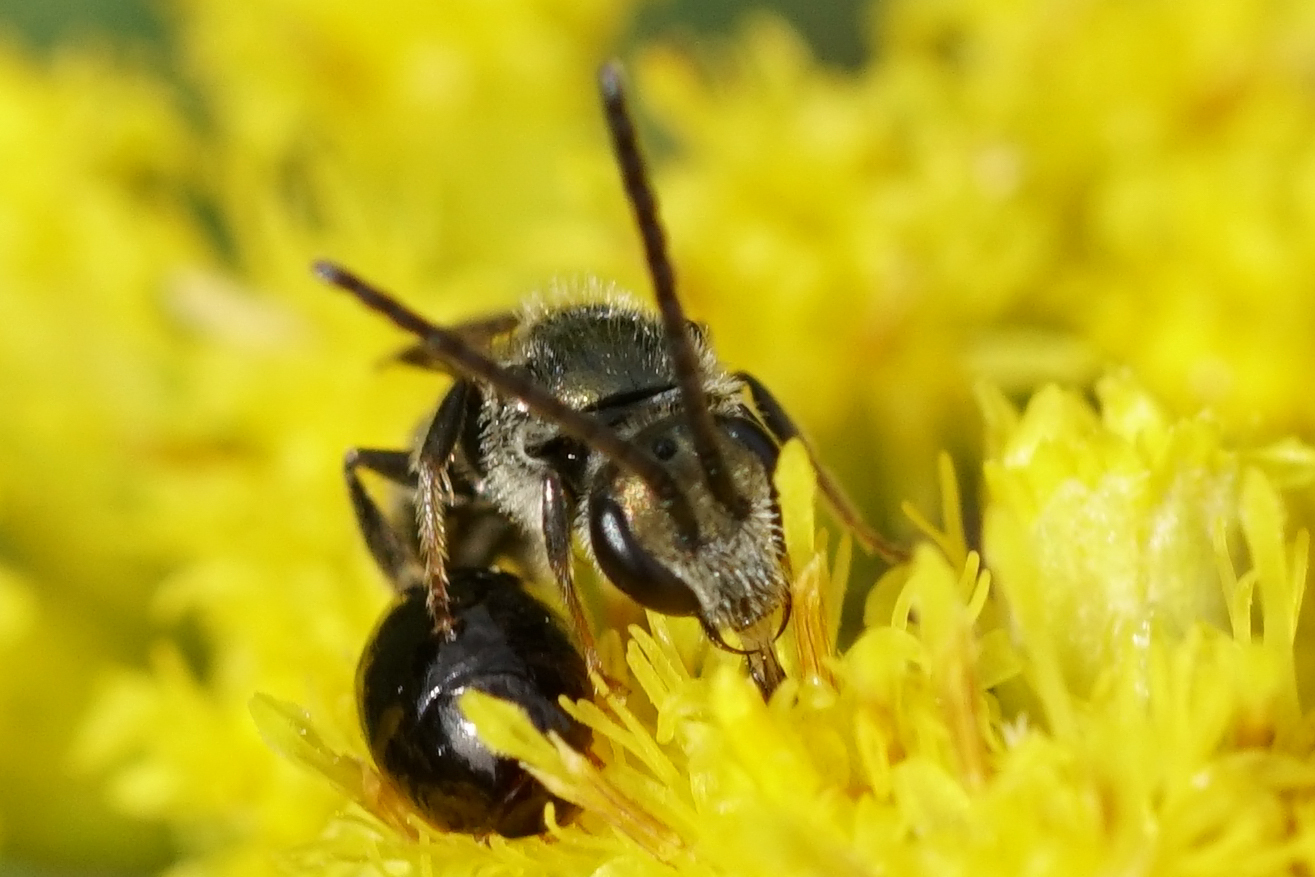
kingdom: Animalia
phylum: Arthropoda
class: Insecta
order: Hymenoptera
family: Halictidae
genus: Dialictus
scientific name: Dialictus
